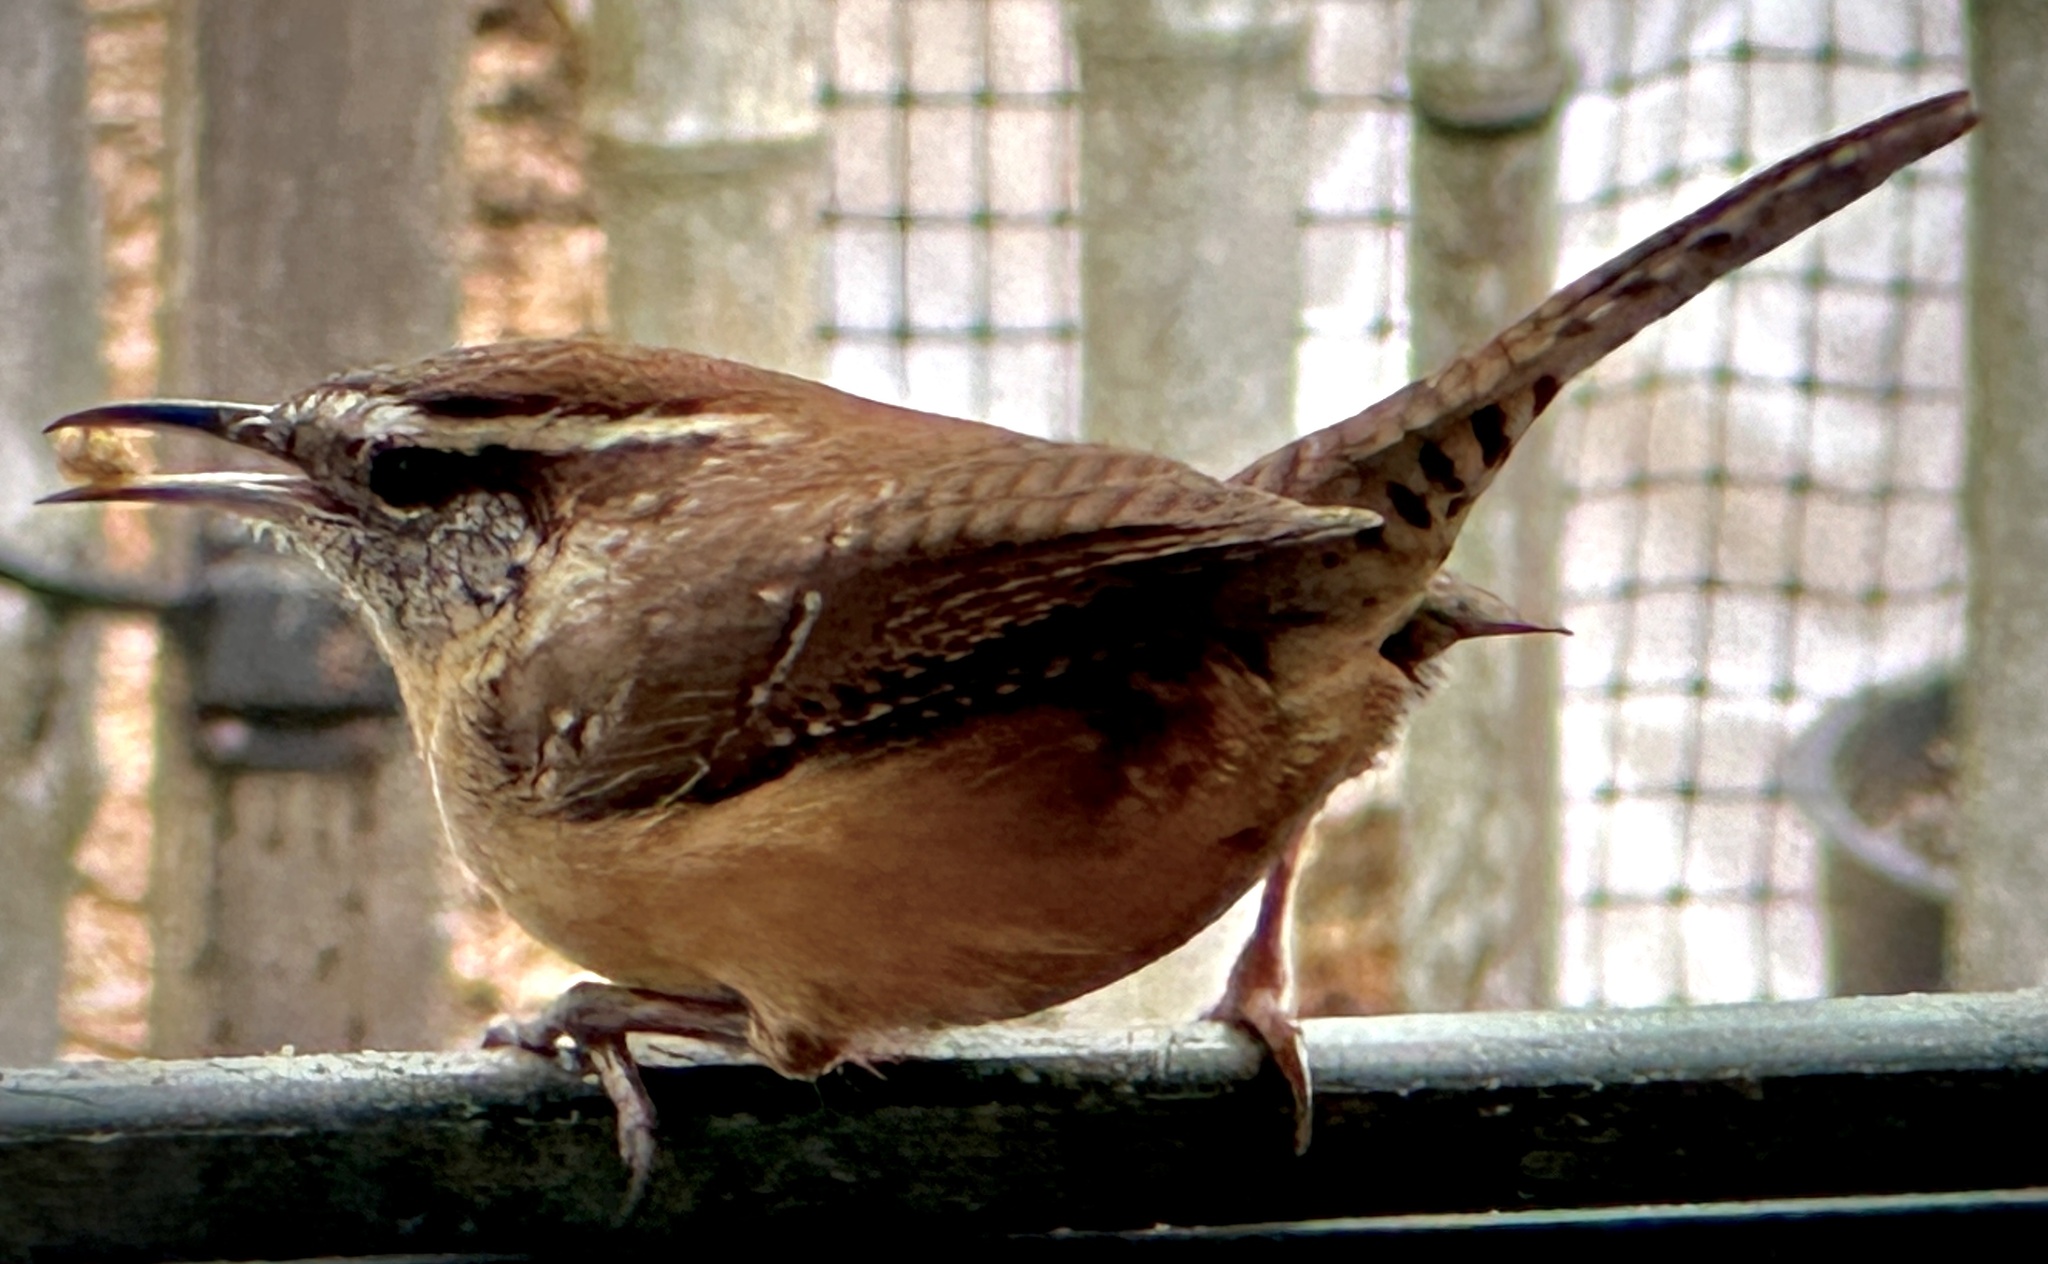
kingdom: Animalia
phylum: Chordata
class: Aves
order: Passeriformes
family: Troglodytidae
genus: Thryothorus
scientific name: Thryothorus ludovicianus
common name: Carolina wren
